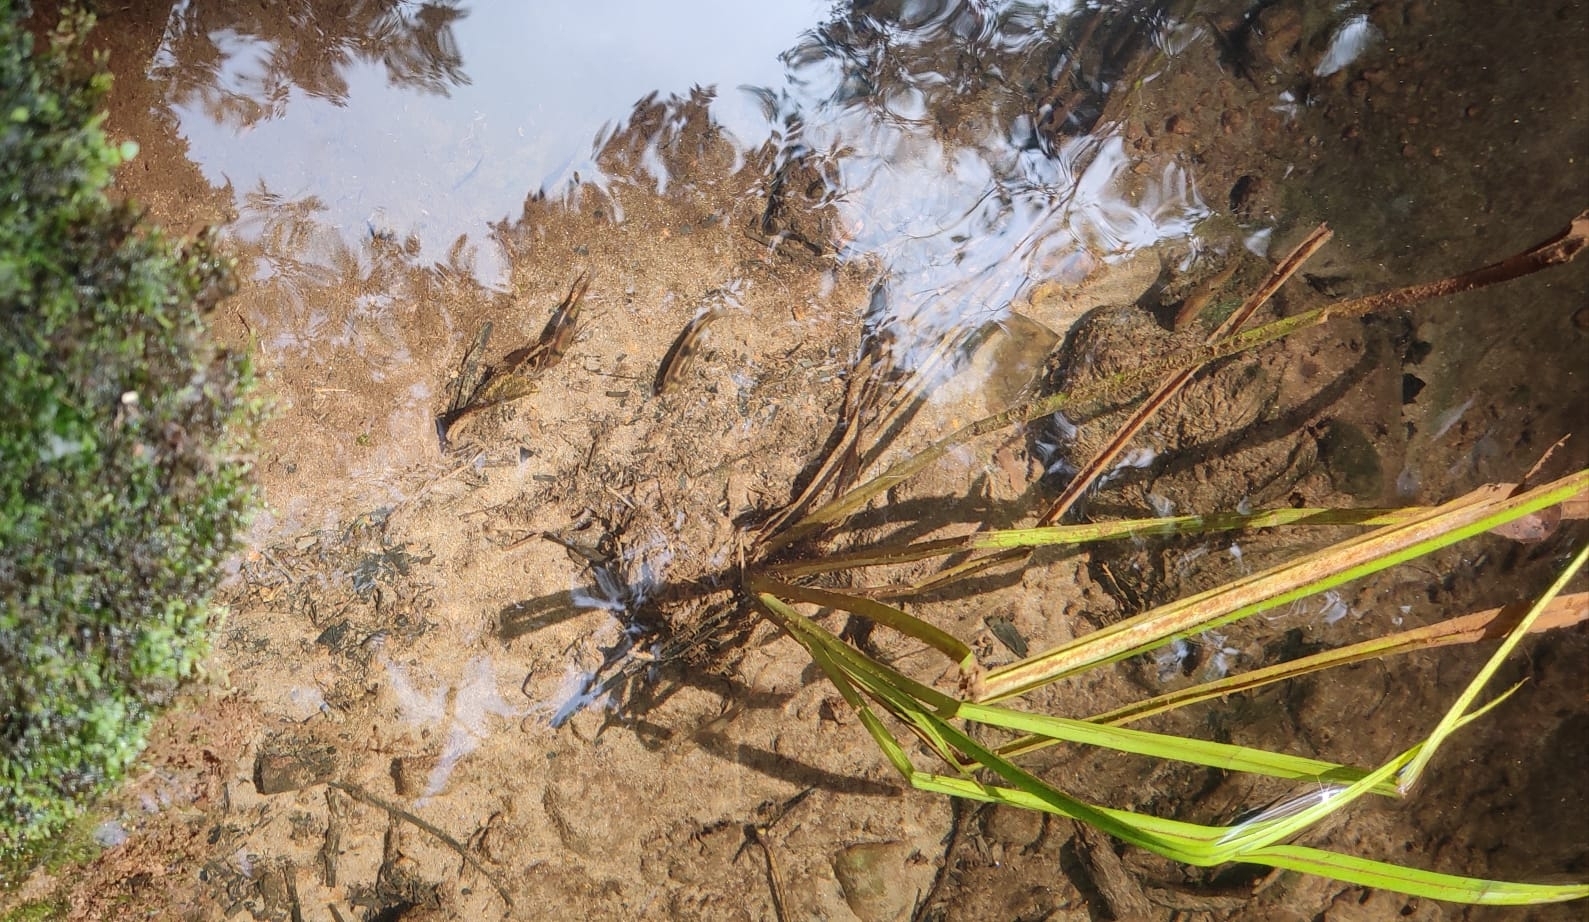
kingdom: Animalia
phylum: Chordata
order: Cypriniformes
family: Cyprinidae
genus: Haludaria
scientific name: Haludaria fasciata
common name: Melon barb
